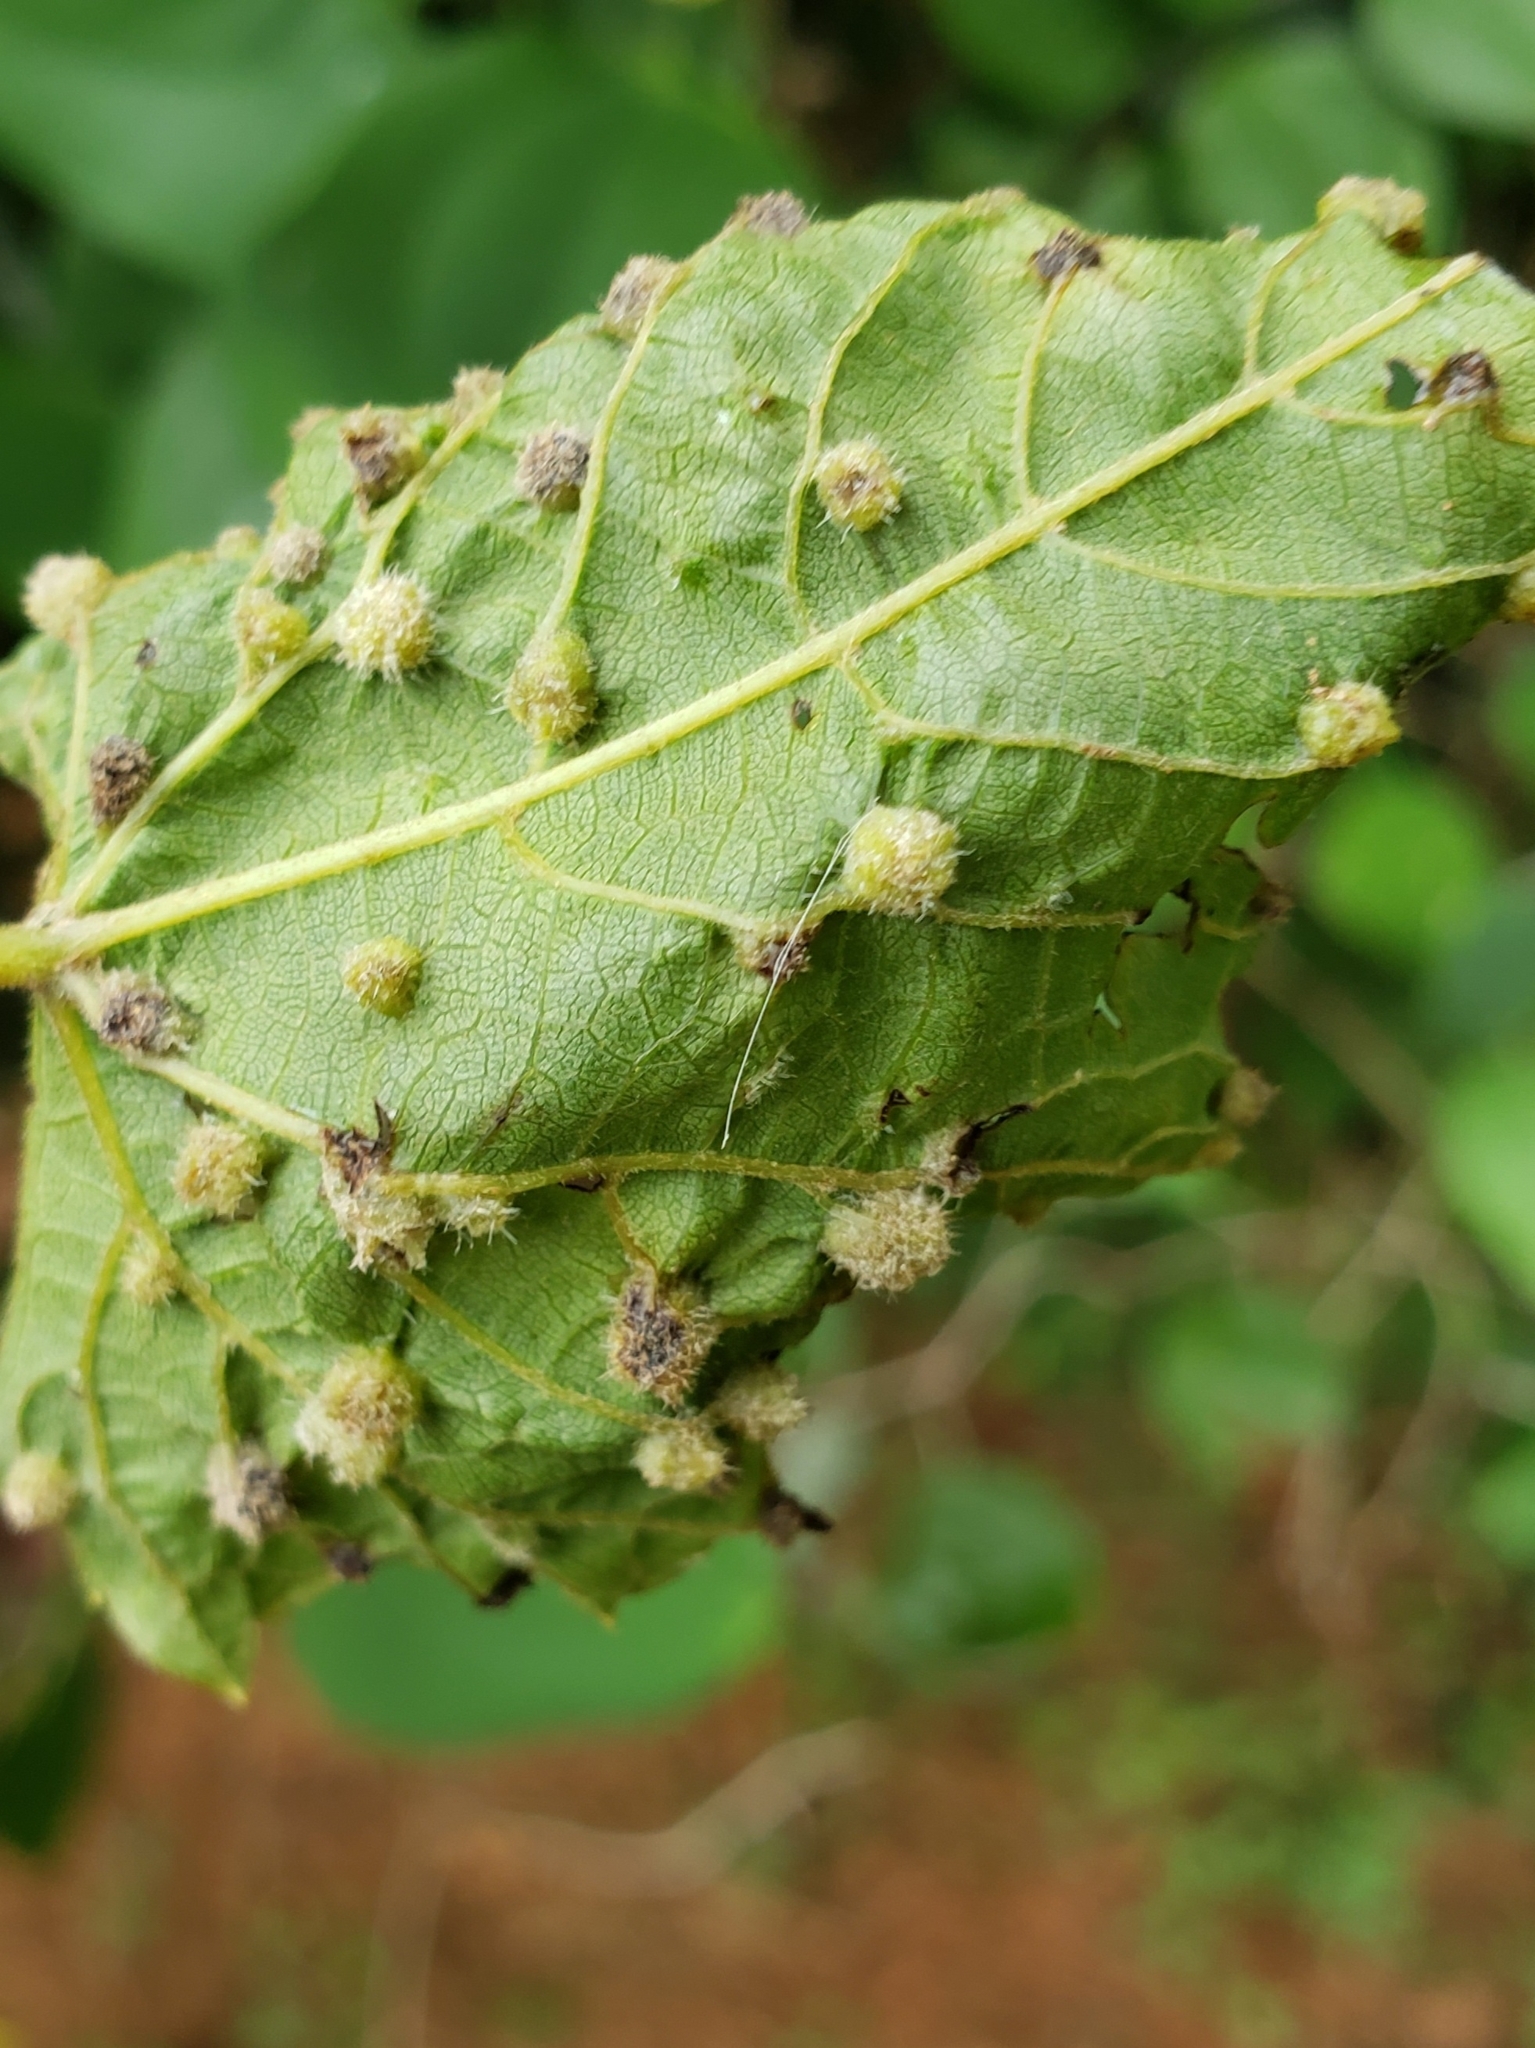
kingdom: Animalia
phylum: Arthropoda
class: Insecta
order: Hemiptera
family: Phylloxeridae
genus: Daktulosphaira
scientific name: Daktulosphaira vitifoliae
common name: Grape phylloxera
